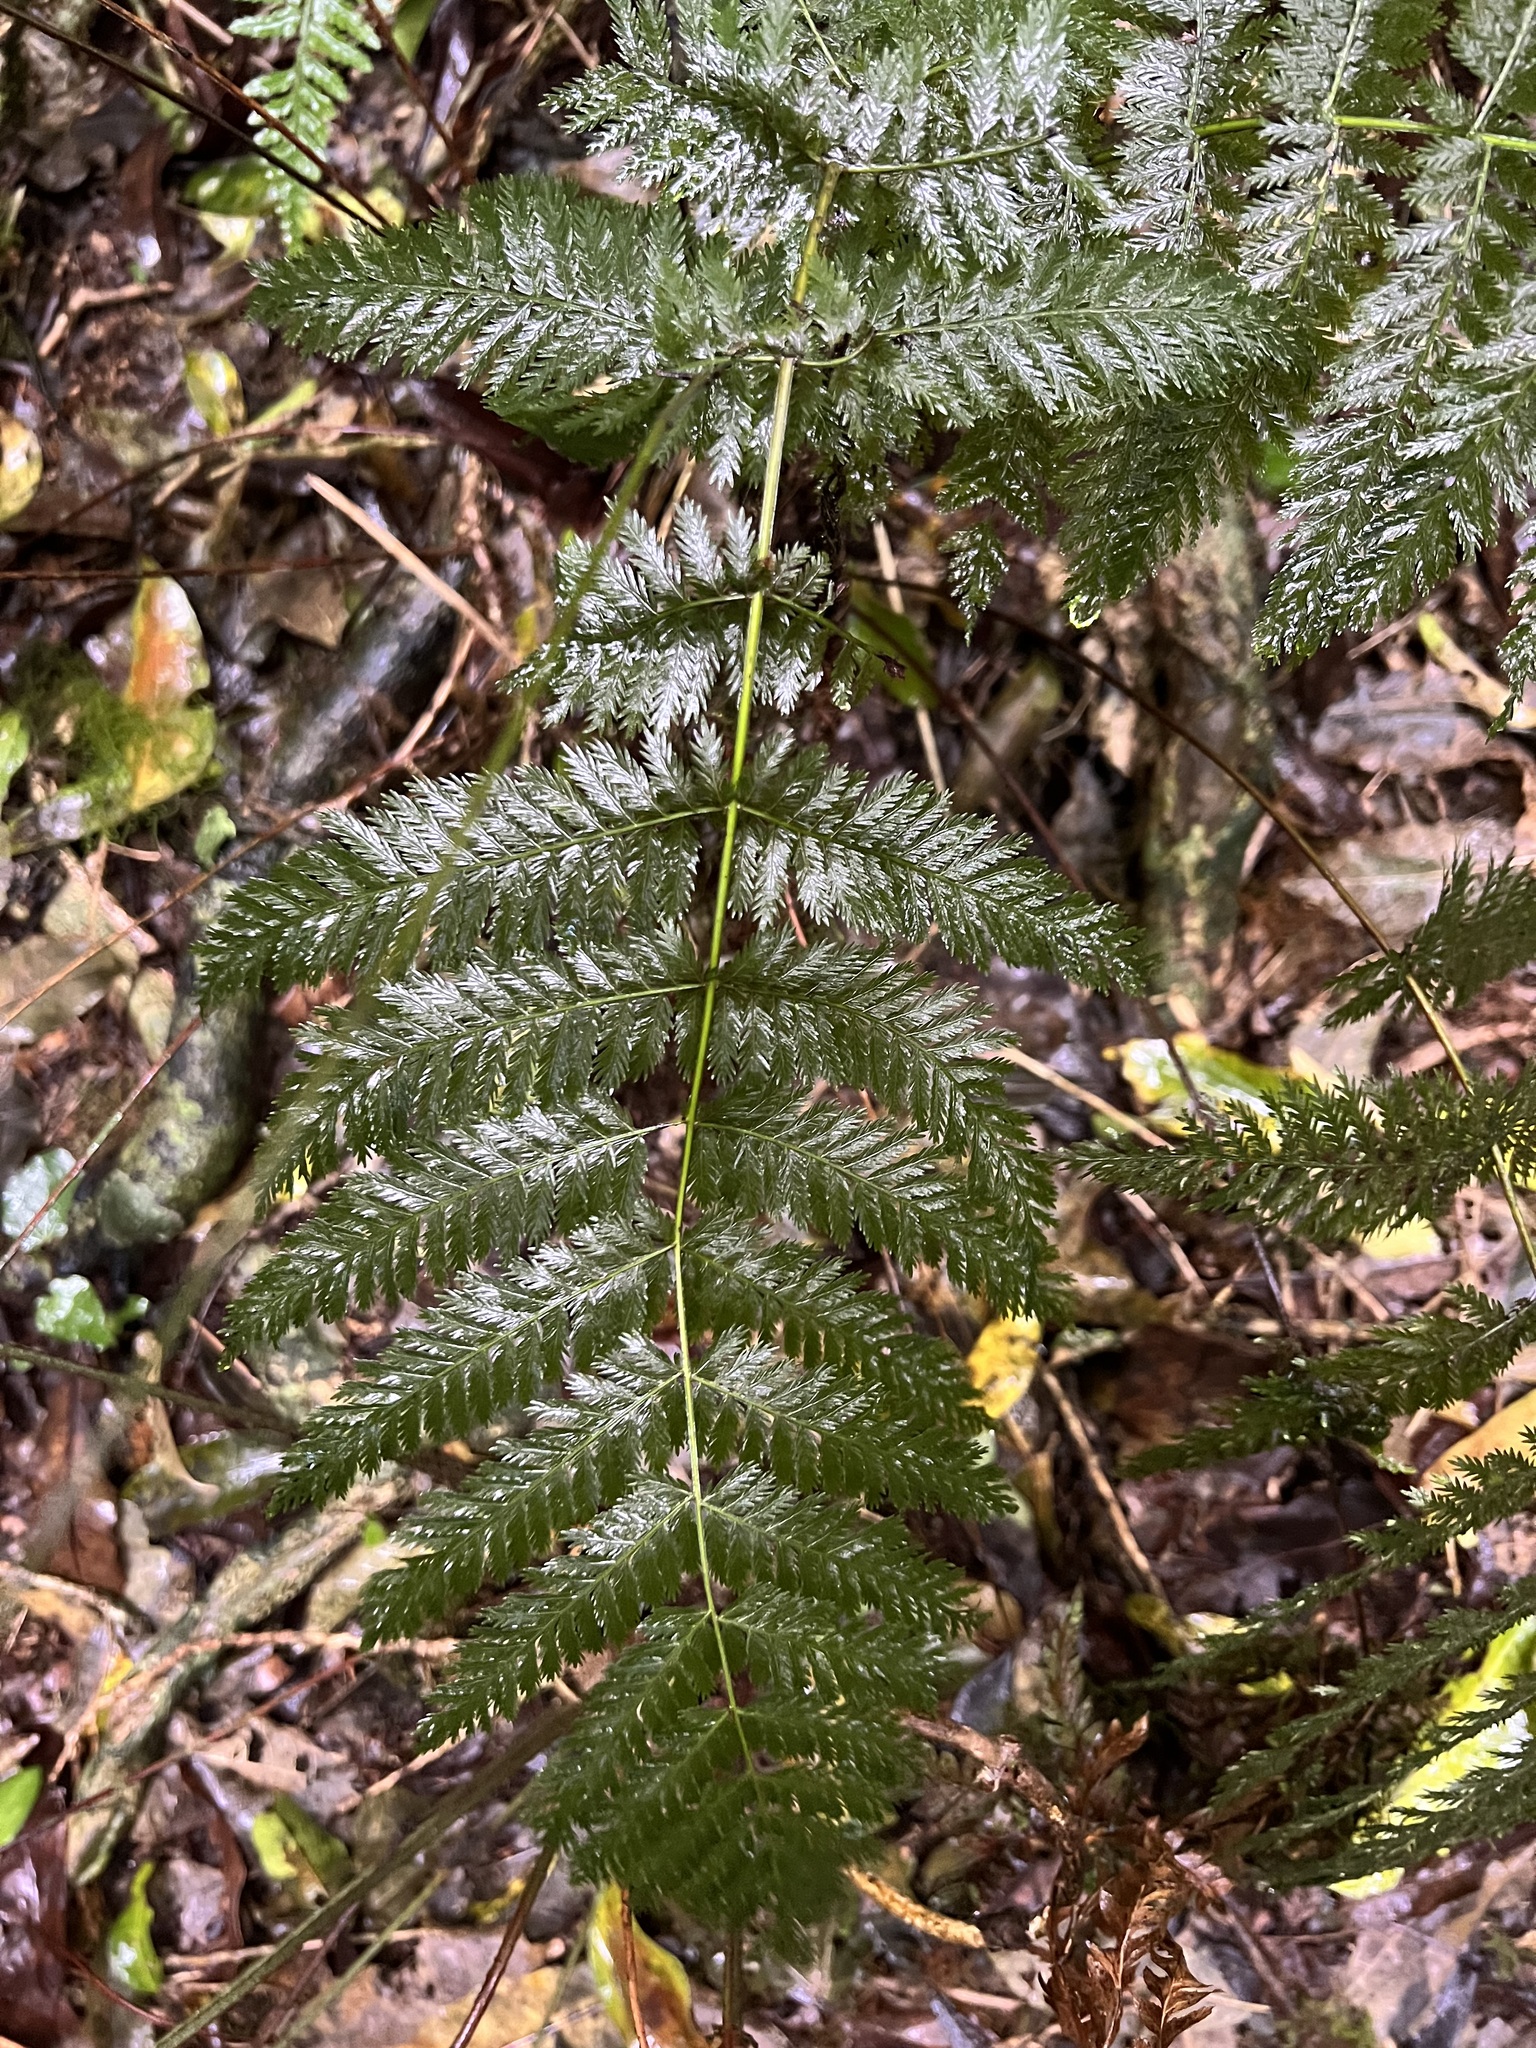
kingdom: Plantae
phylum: Tracheophyta
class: Polypodiopsida
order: Osmundales
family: Osmundaceae
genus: Leptopteris
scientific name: Leptopteris hymenophylloides
